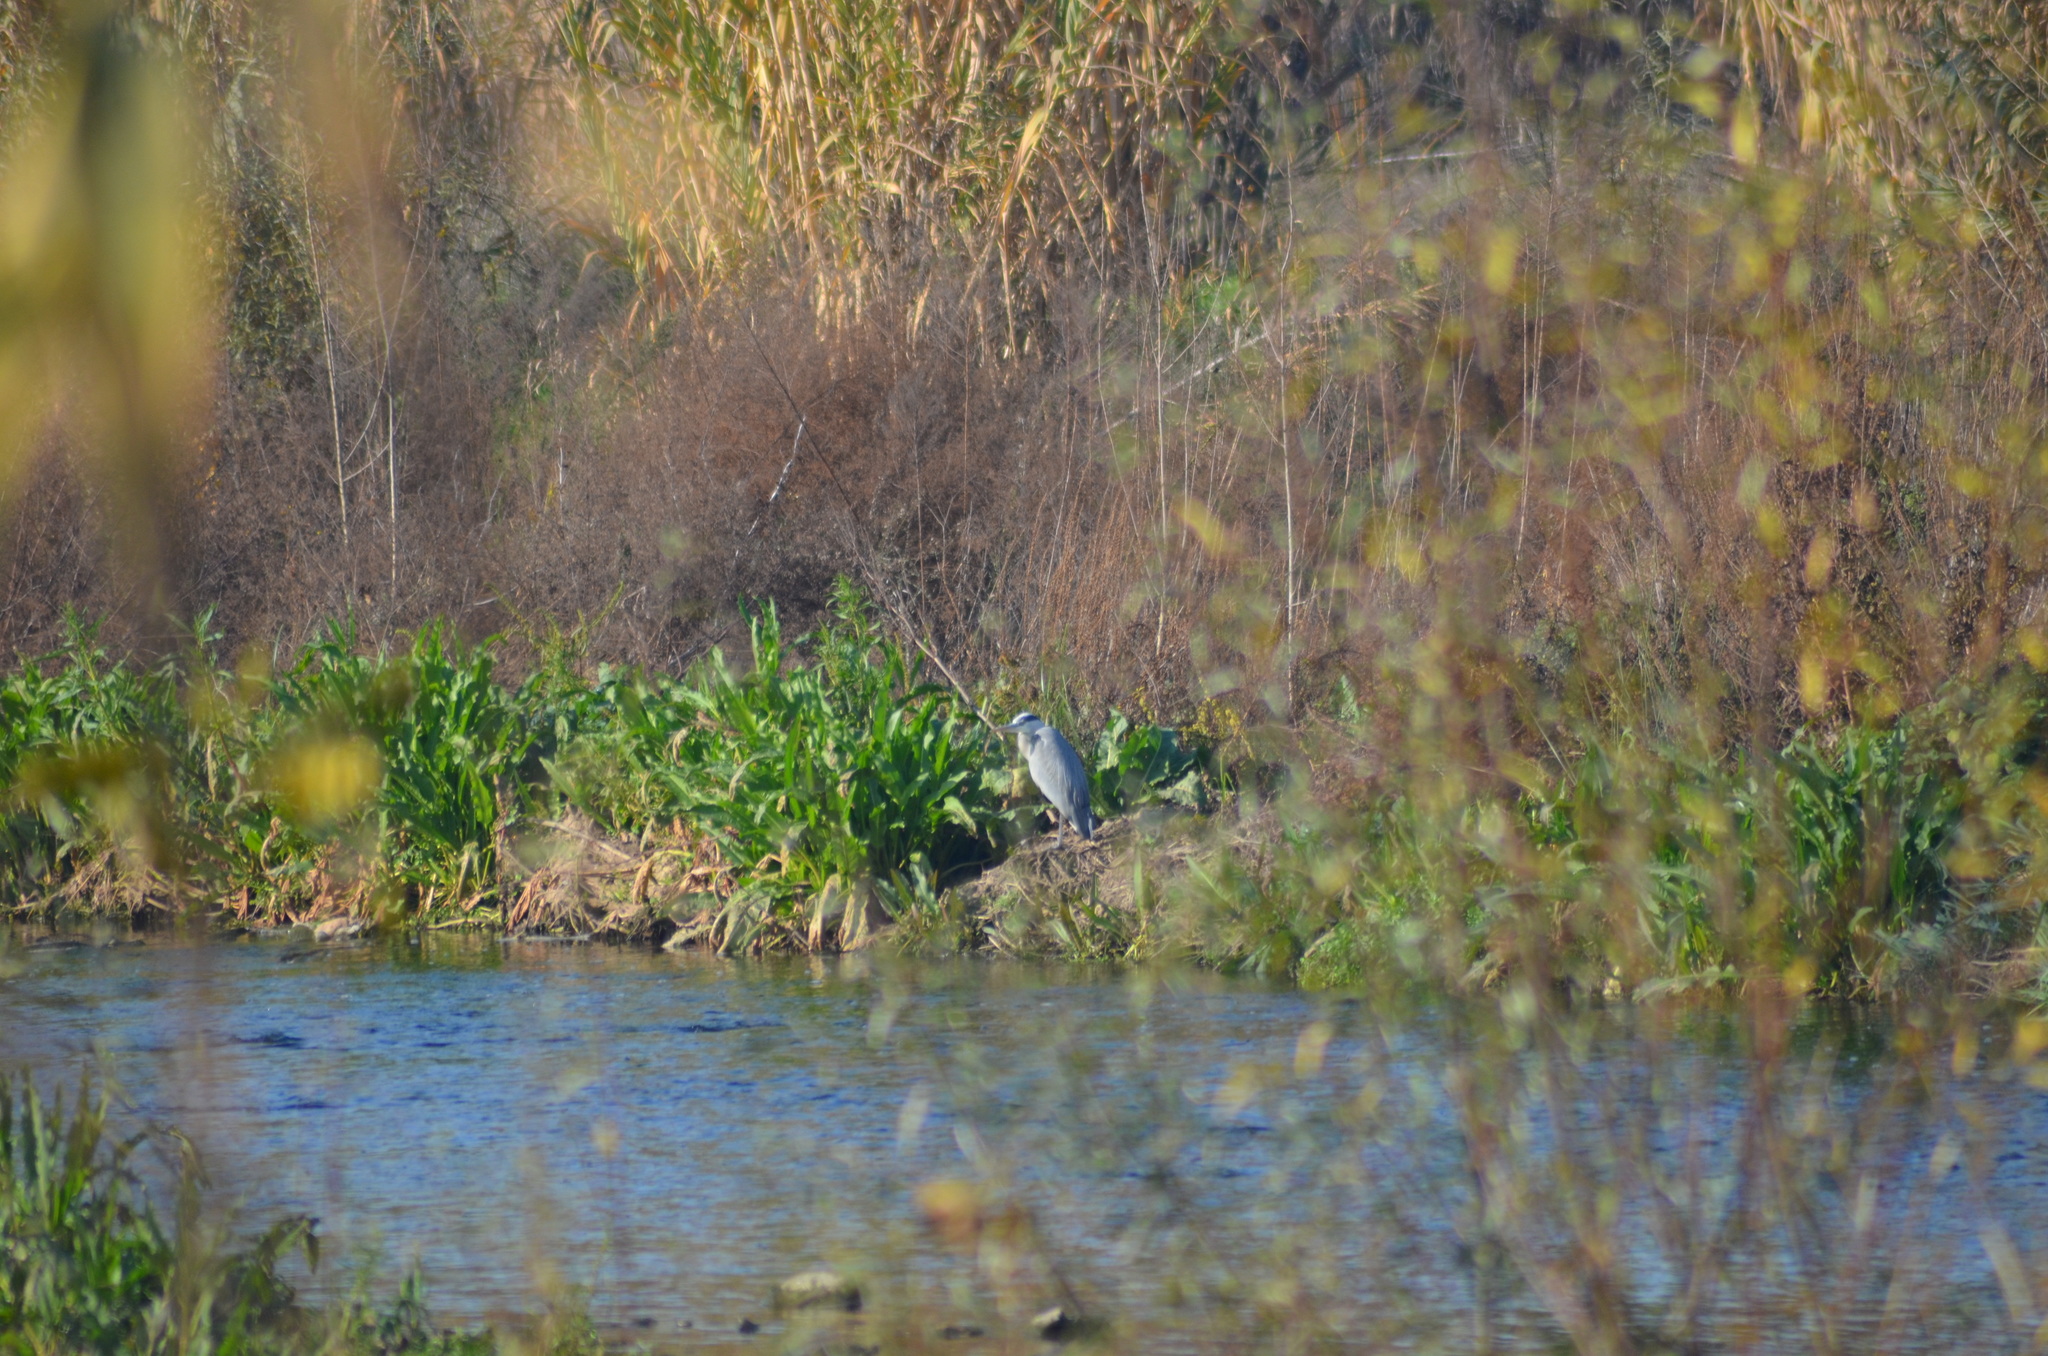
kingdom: Animalia
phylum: Chordata
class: Aves
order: Pelecaniformes
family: Ardeidae
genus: Ardea
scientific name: Ardea cinerea
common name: Grey heron
